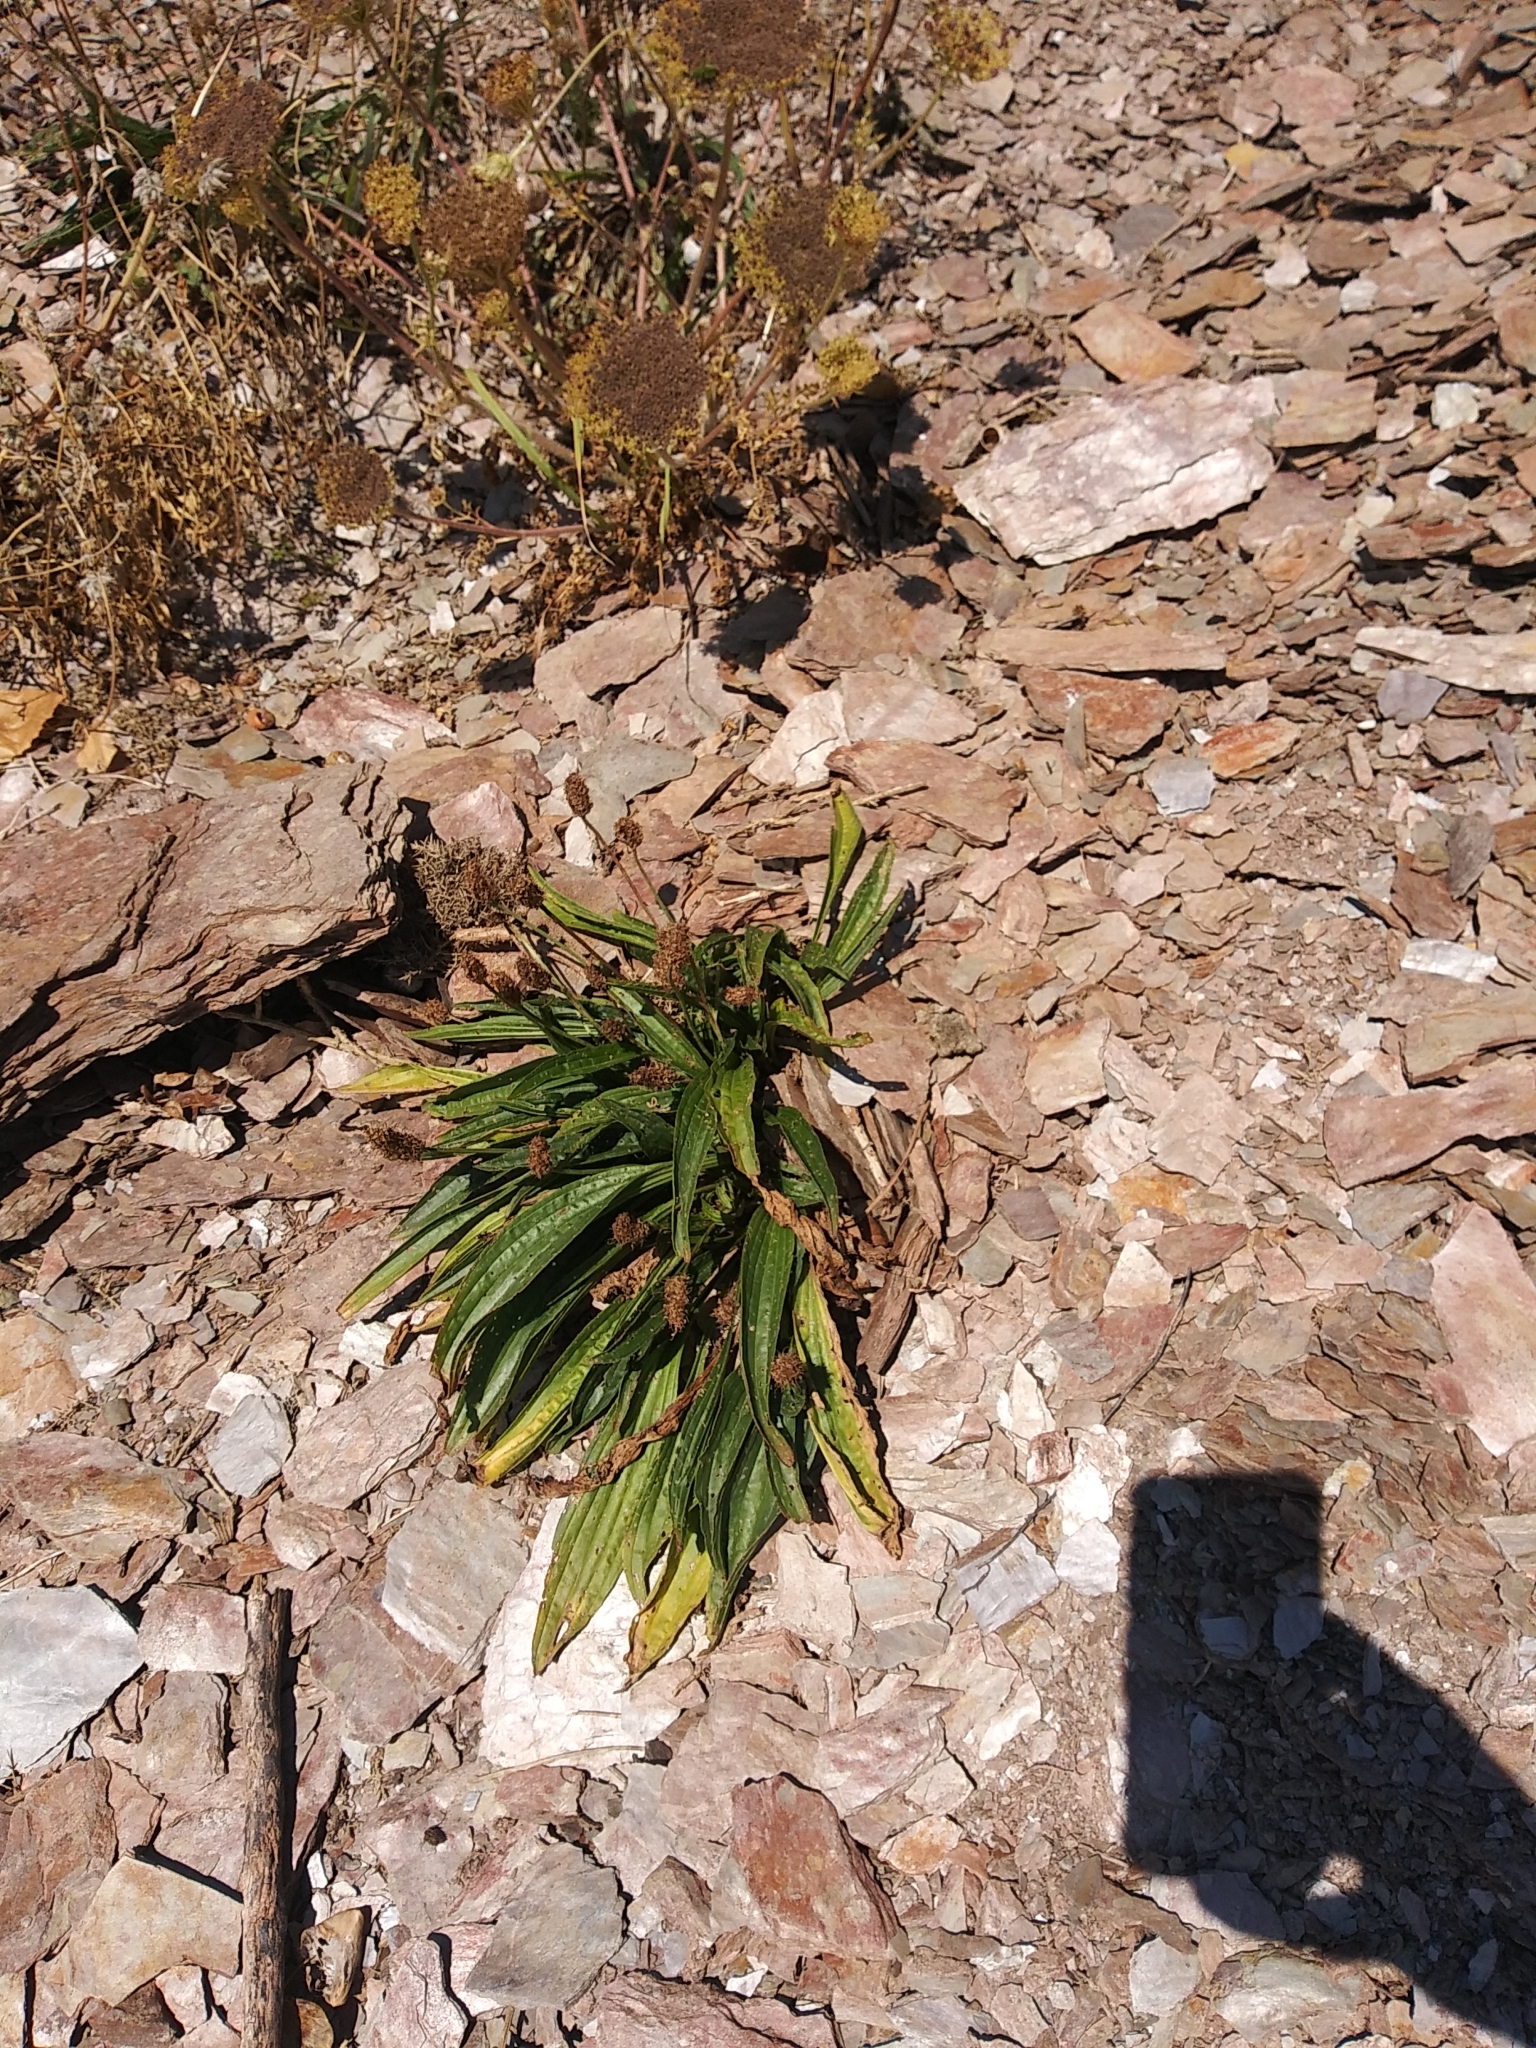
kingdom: Plantae
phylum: Tracheophyta
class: Magnoliopsida
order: Lamiales
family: Plantaginaceae
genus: Plantago
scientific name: Plantago lanceolata
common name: Ribwort plantain
